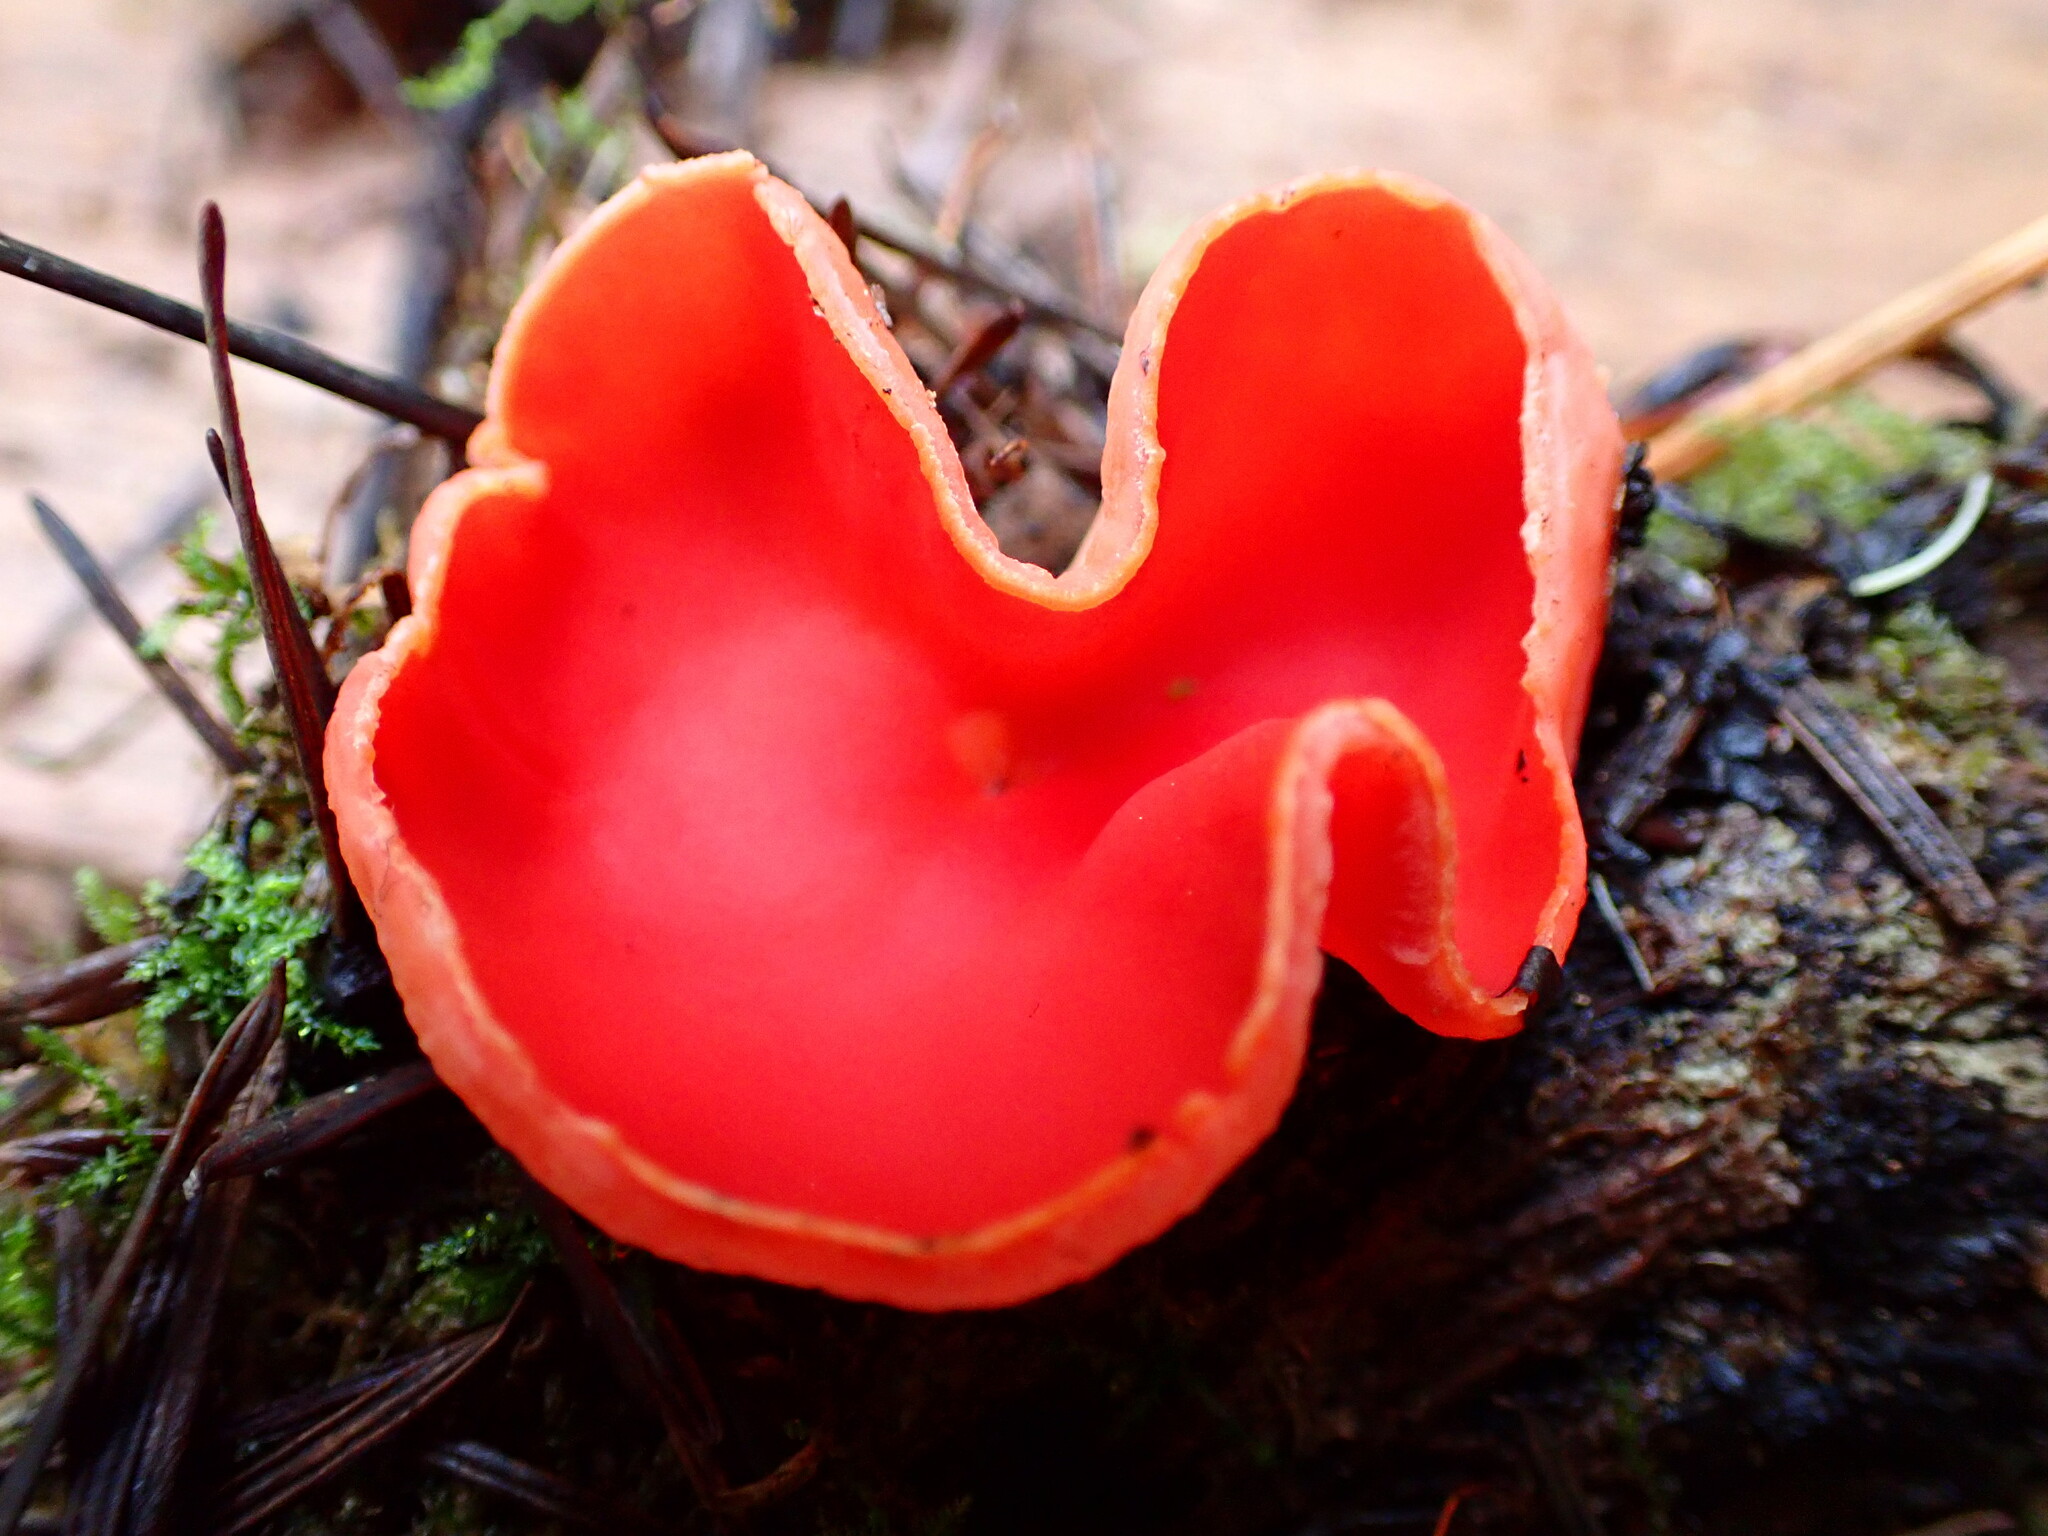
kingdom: Fungi
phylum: Ascomycota
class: Pezizomycetes
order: Pezizales
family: Sarcoscyphaceae
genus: Sarcoscypha
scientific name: Sarcoscypha coccinea
